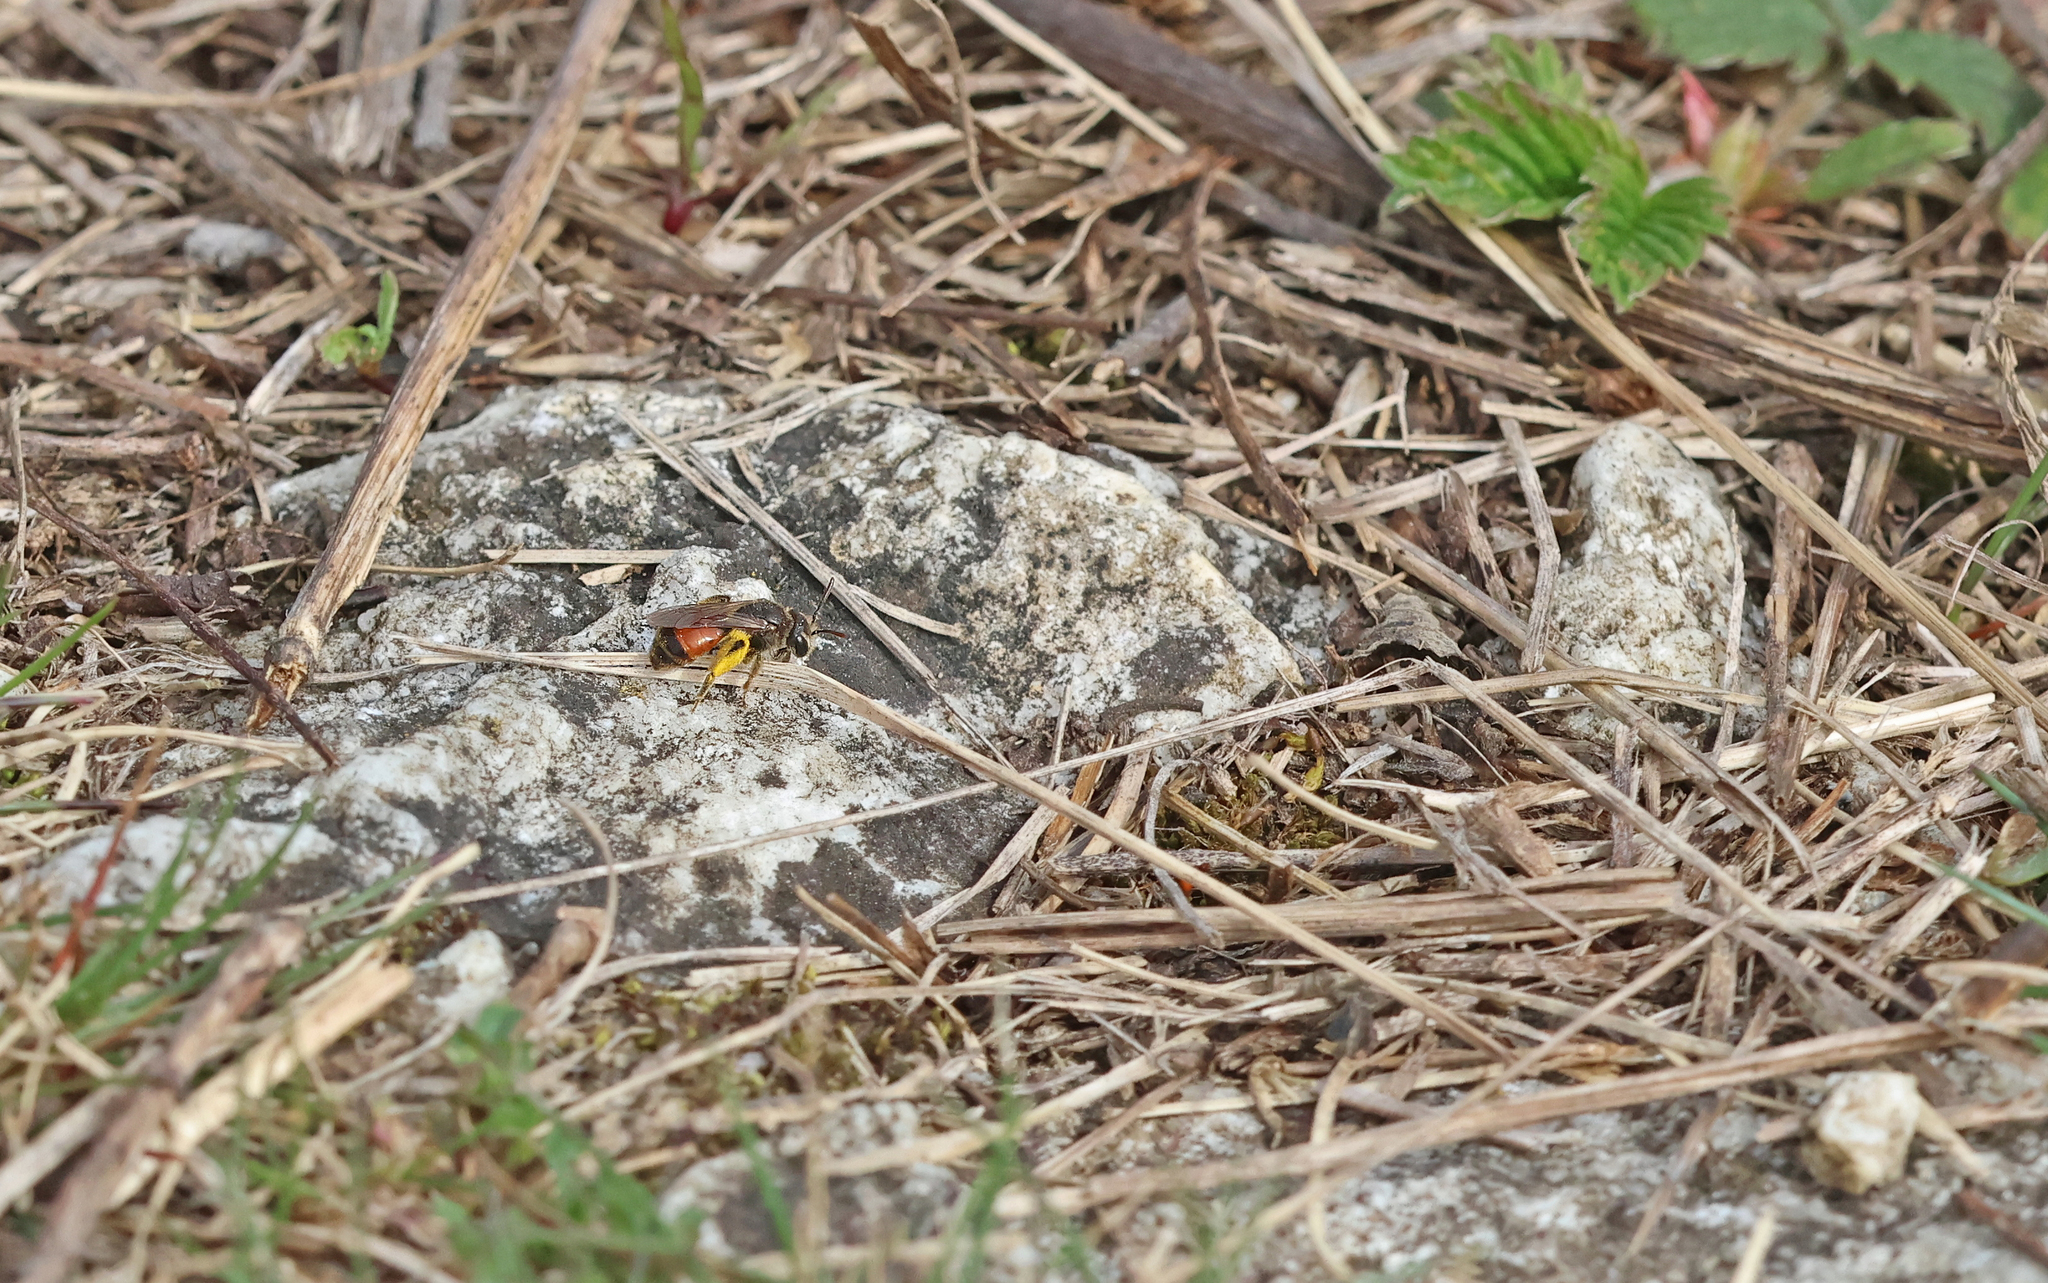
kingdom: Animalia
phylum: Arthropoda
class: Insecta
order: Hymenoptera
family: Andrenidae
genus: Andrena
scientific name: Andrena labiata
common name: Red-girdled mining bee
